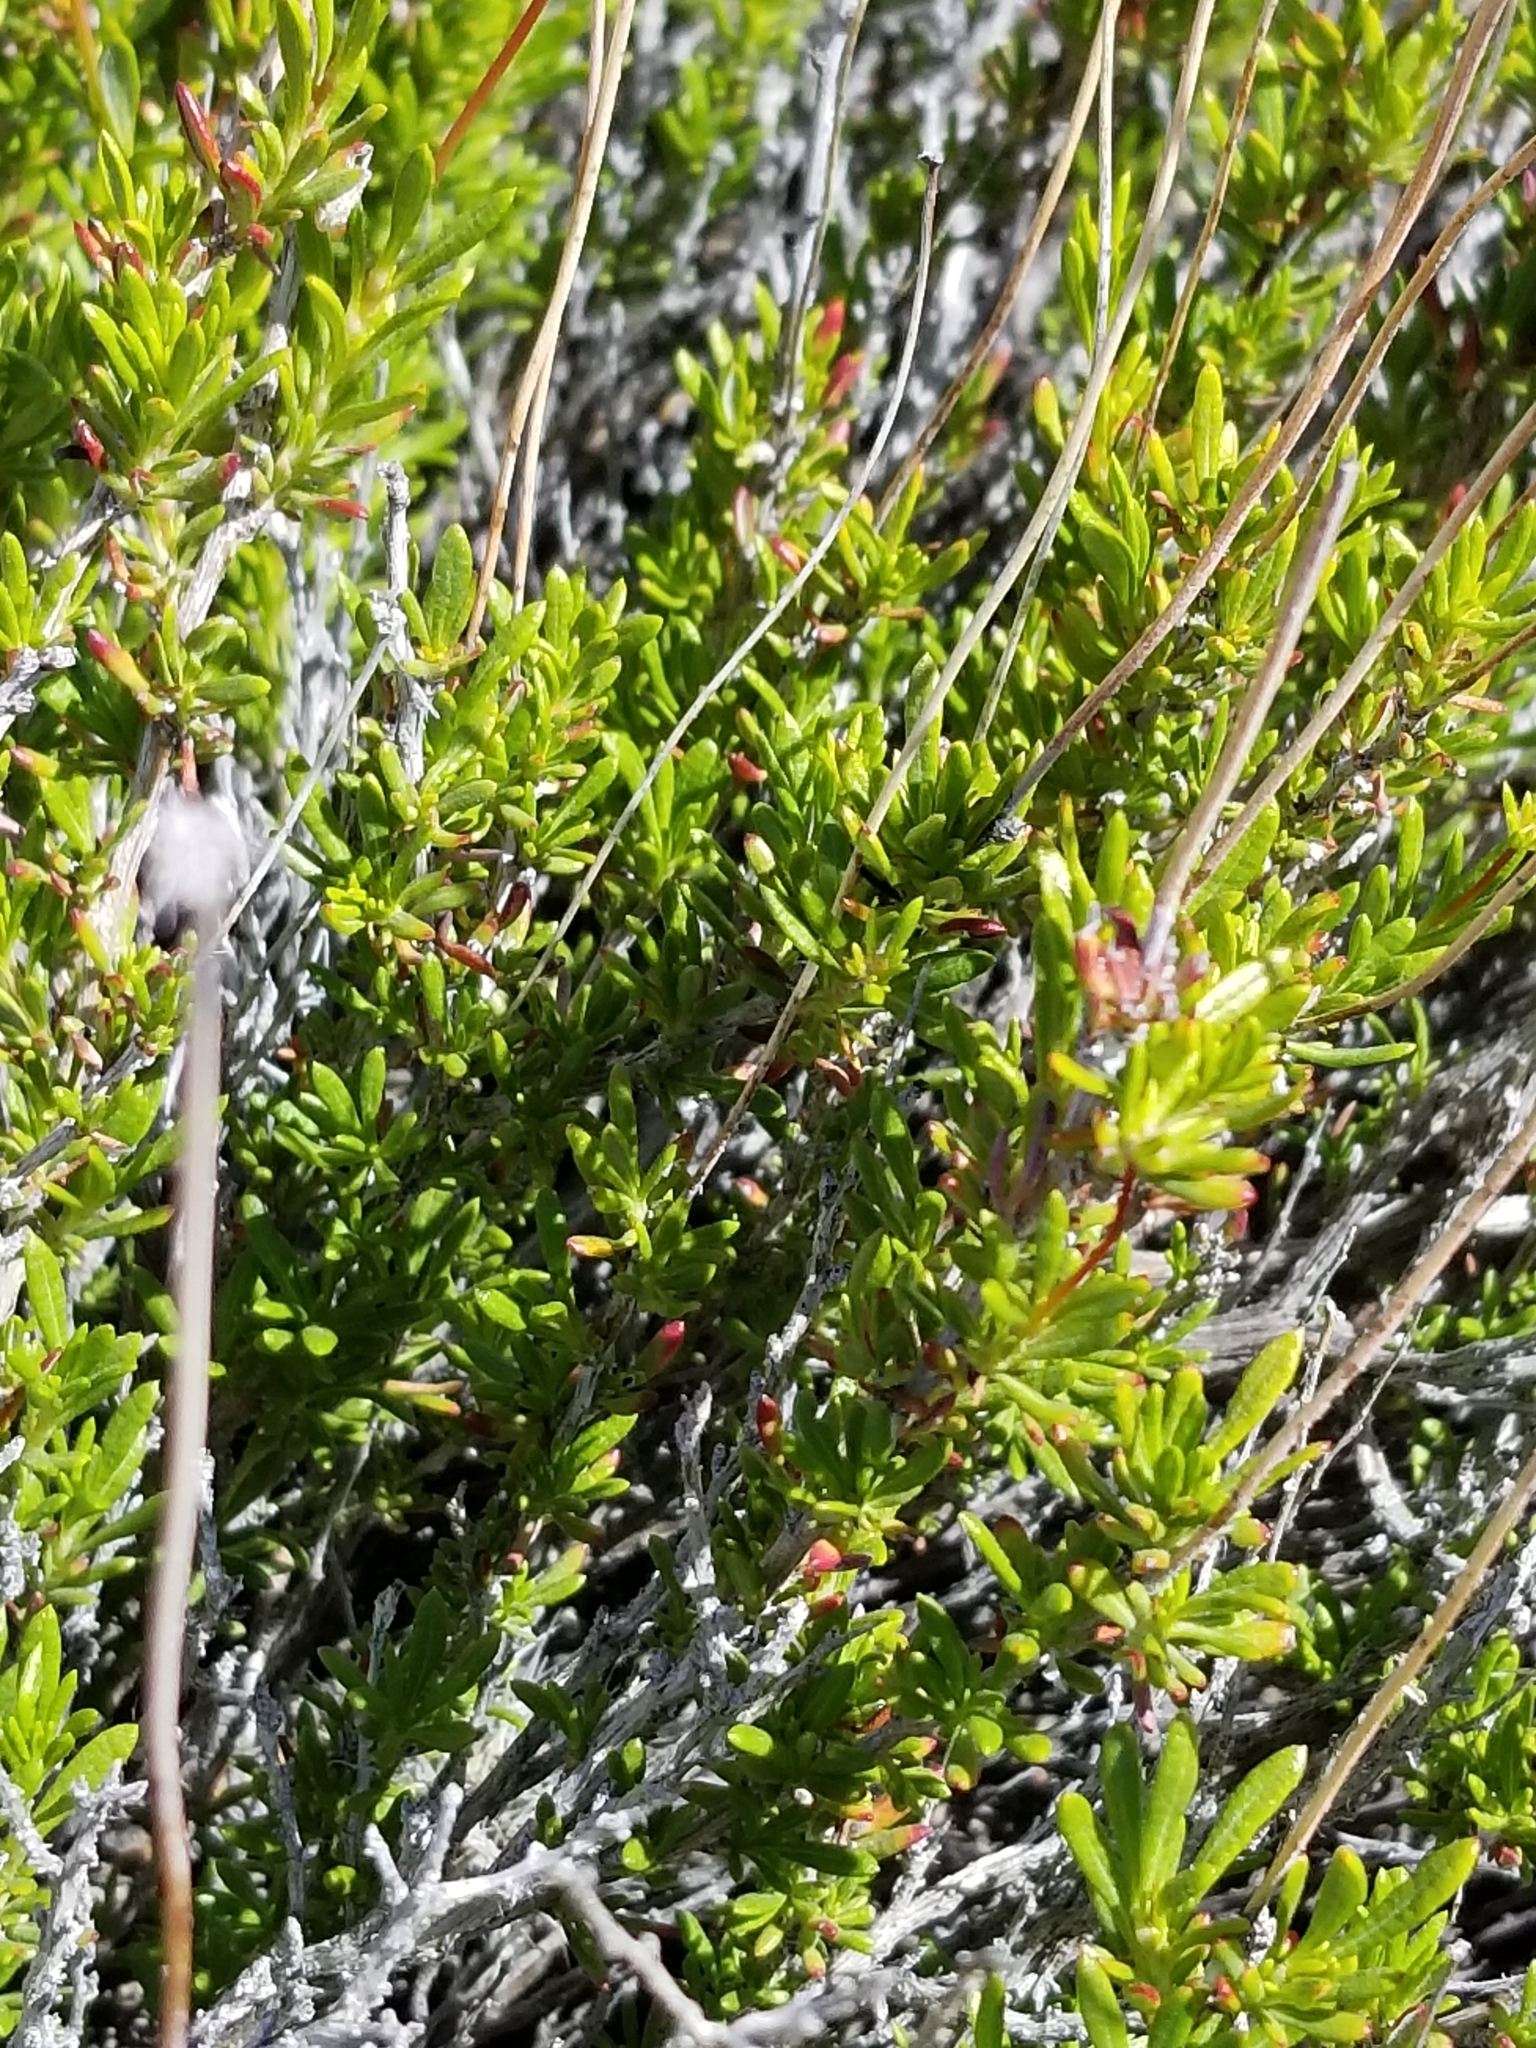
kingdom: Plantae
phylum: Tracheophyta
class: Magnoliopsida
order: Caryophyllales
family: Polygonaceae
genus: Eriogonum
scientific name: Eriogonum fasciculatum
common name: California wild buckwheat
